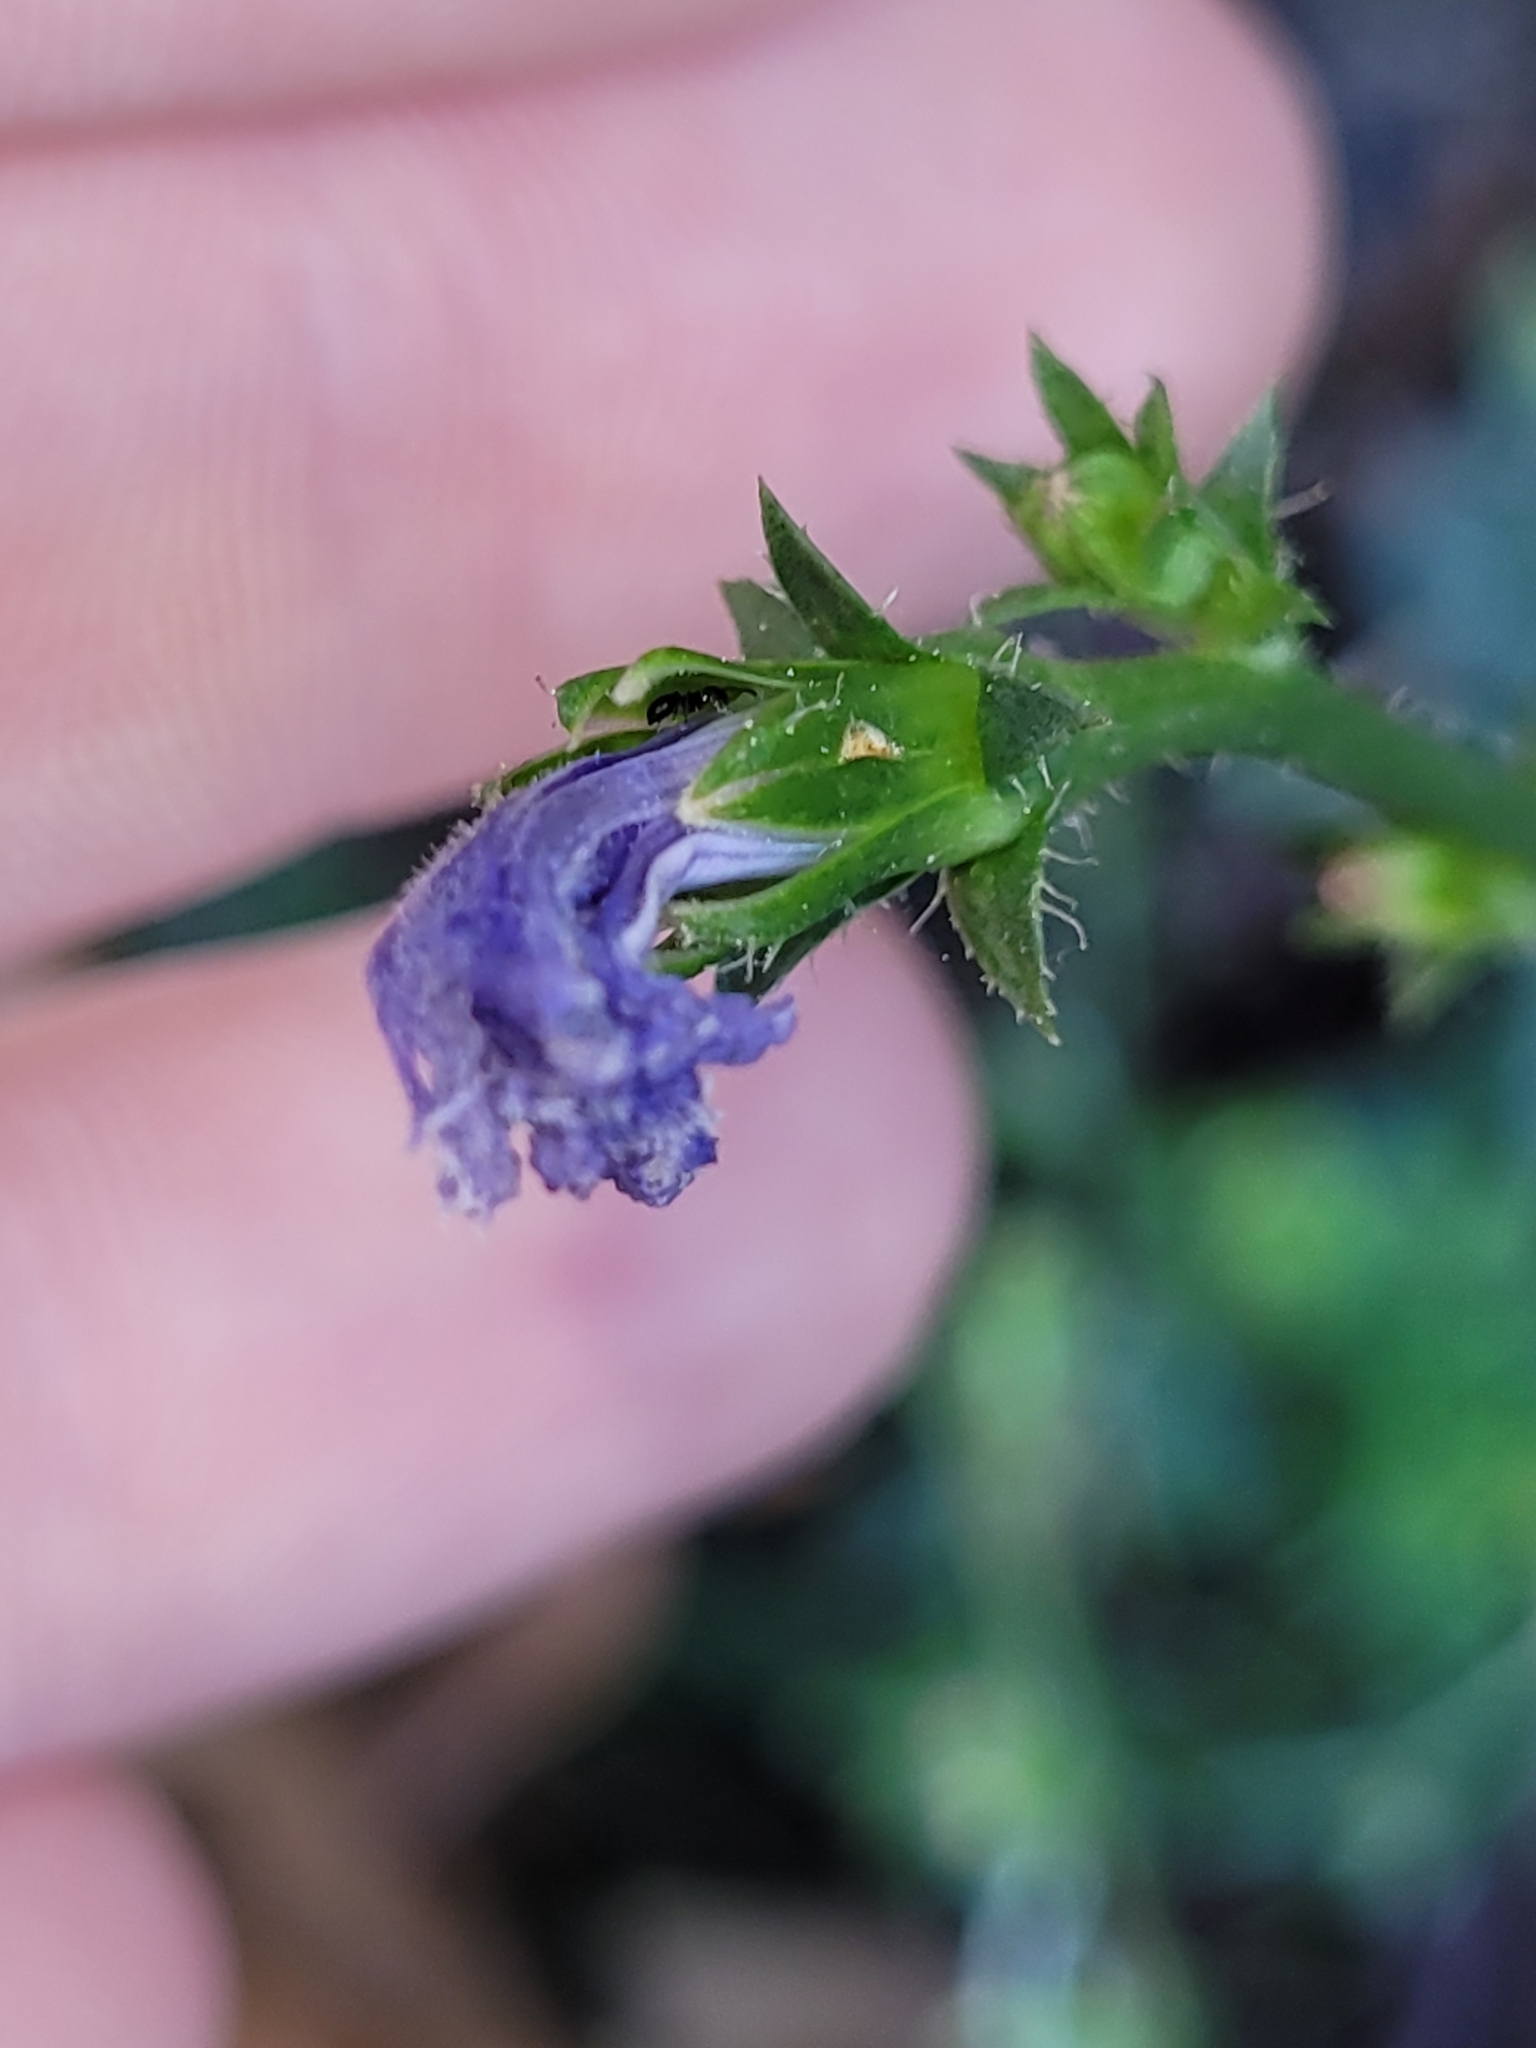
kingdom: Plantae
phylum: Tracheophyta
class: Magnoliopsida
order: Asterales
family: Asteraceae
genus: Cichorium
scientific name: Cichorium intybus
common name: Chicory
